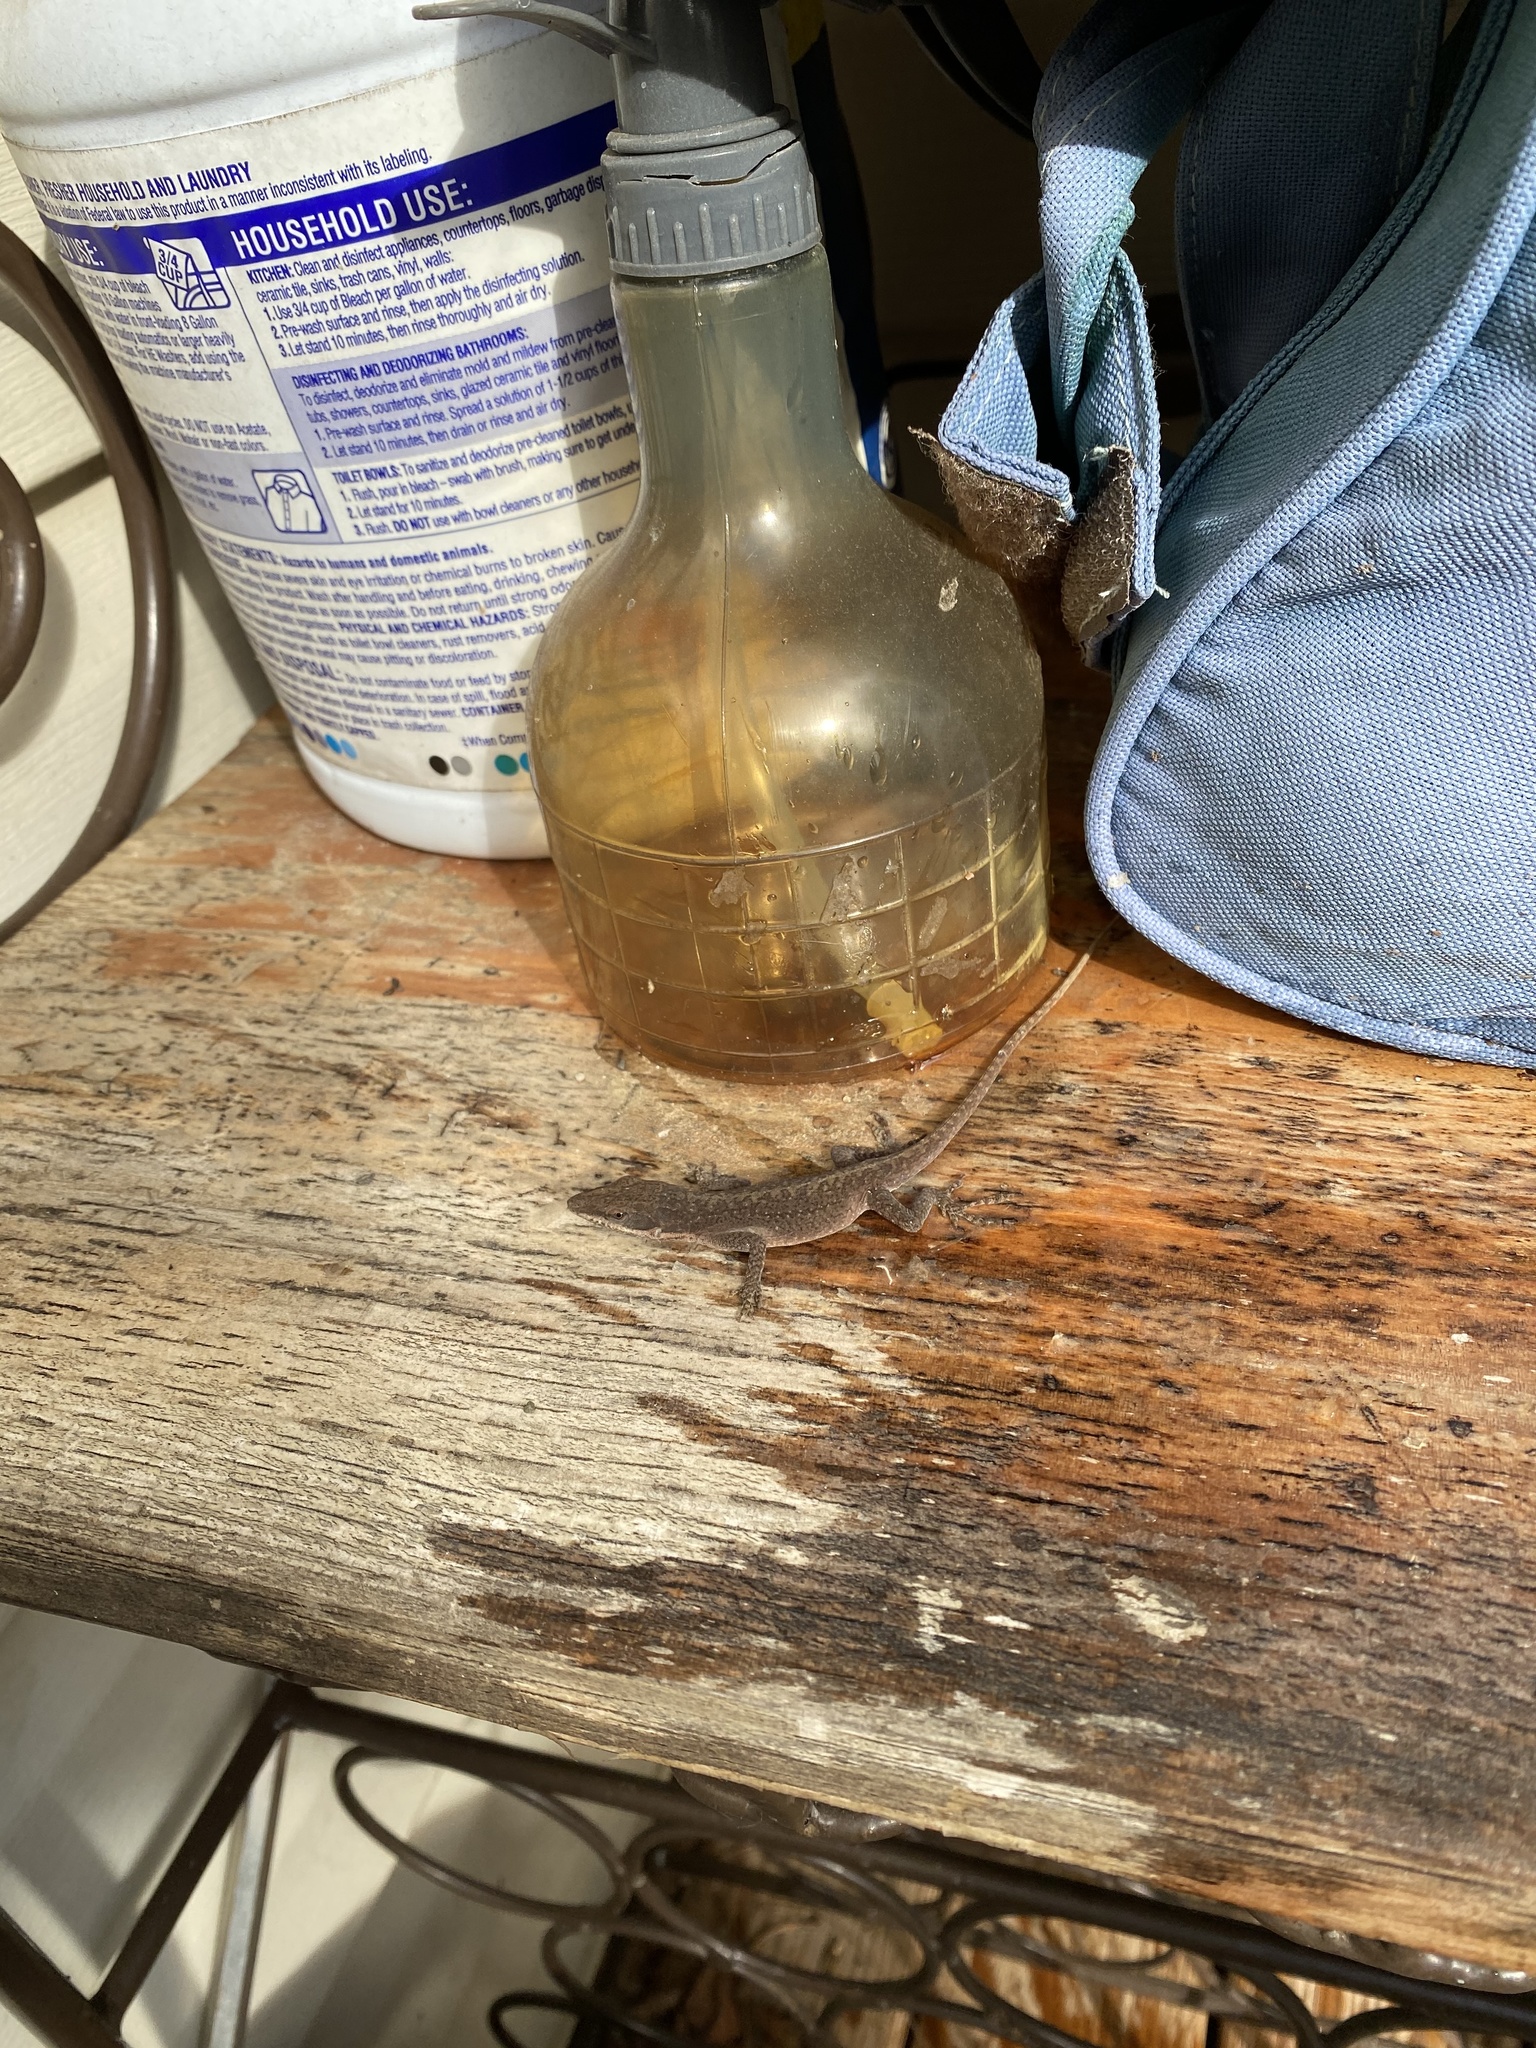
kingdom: Animalia
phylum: Chordata
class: Squamata
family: Dactyloidae
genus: Anolis
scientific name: Anolis carolinensis
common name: Green anole
